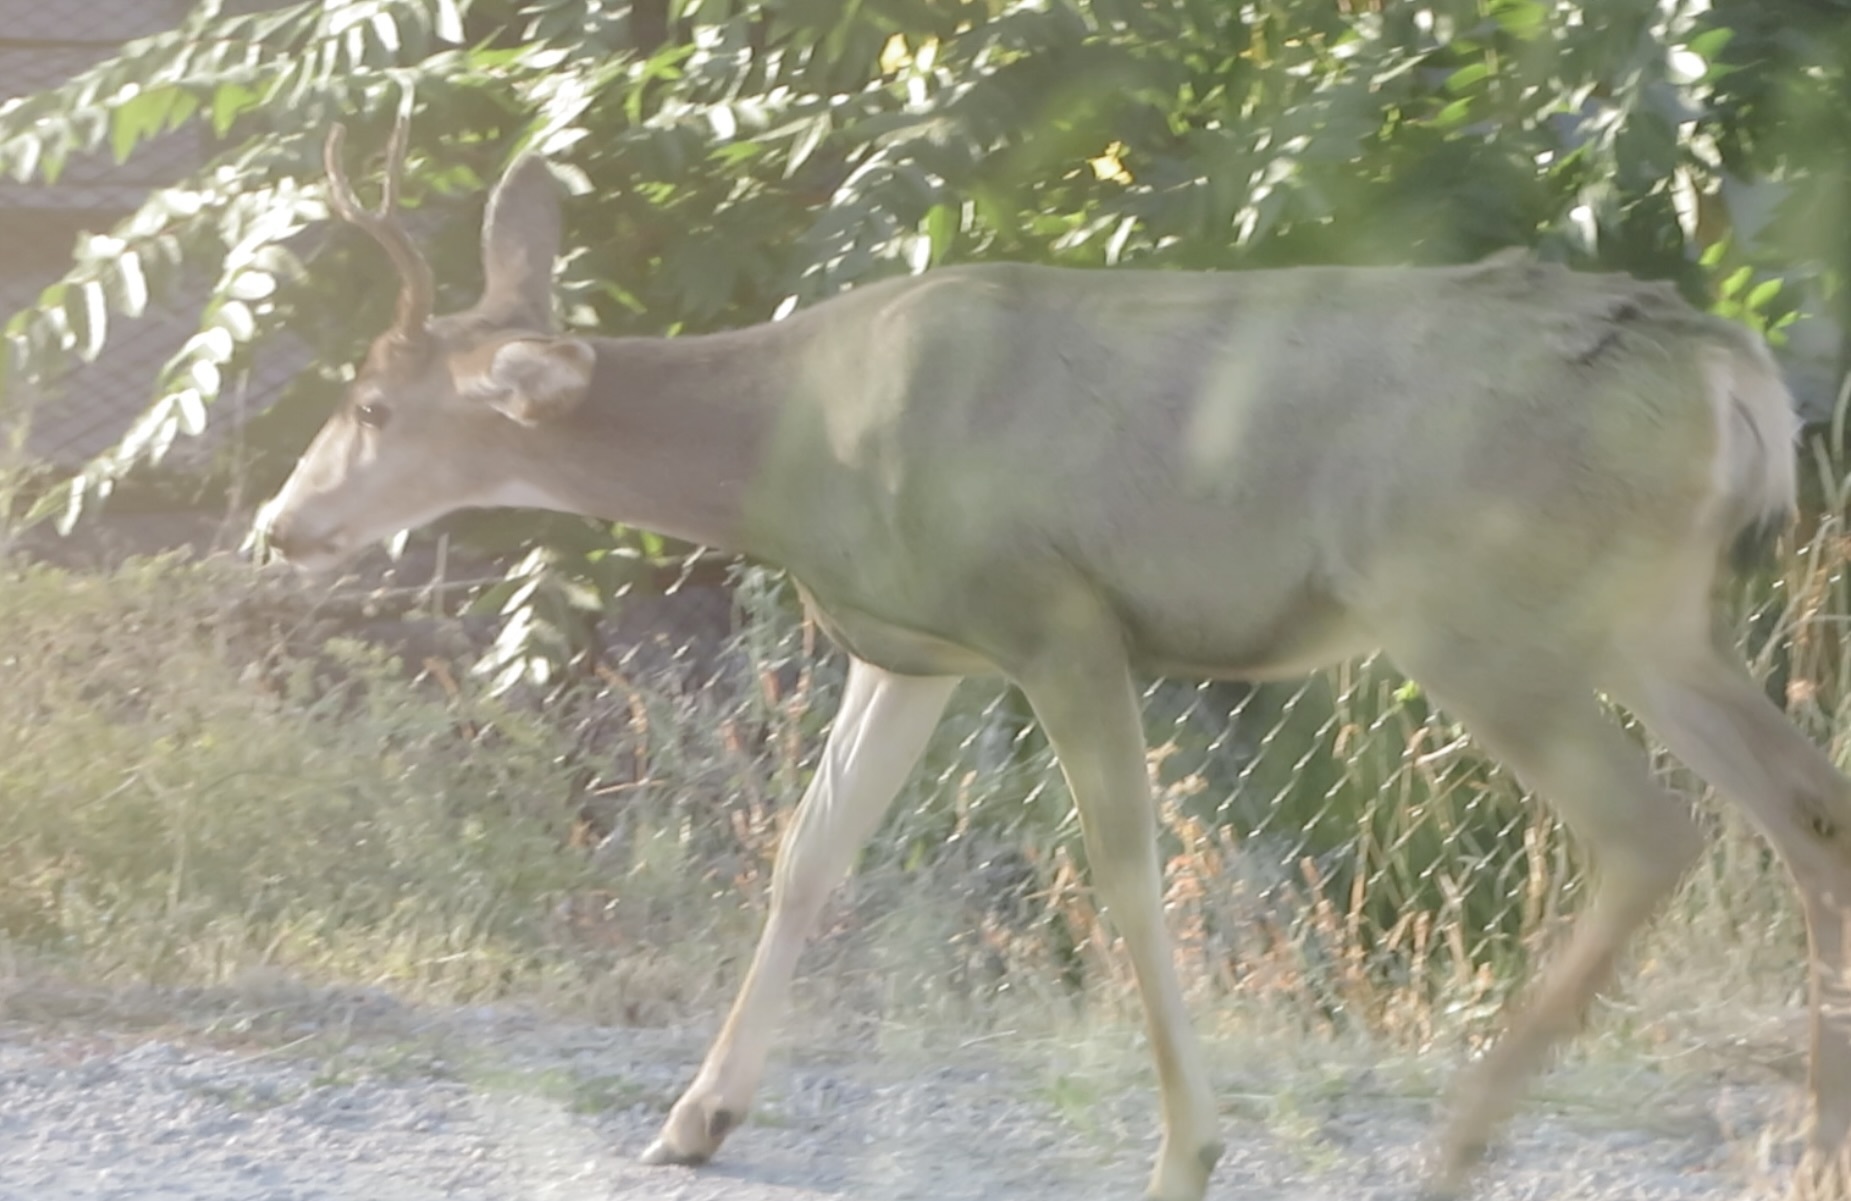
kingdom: Animalia
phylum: Chordata
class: Mammalia
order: Artiodactyla
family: Cervidae
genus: Odocoileus
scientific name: Odocoileus hemionus
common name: Mule deer
